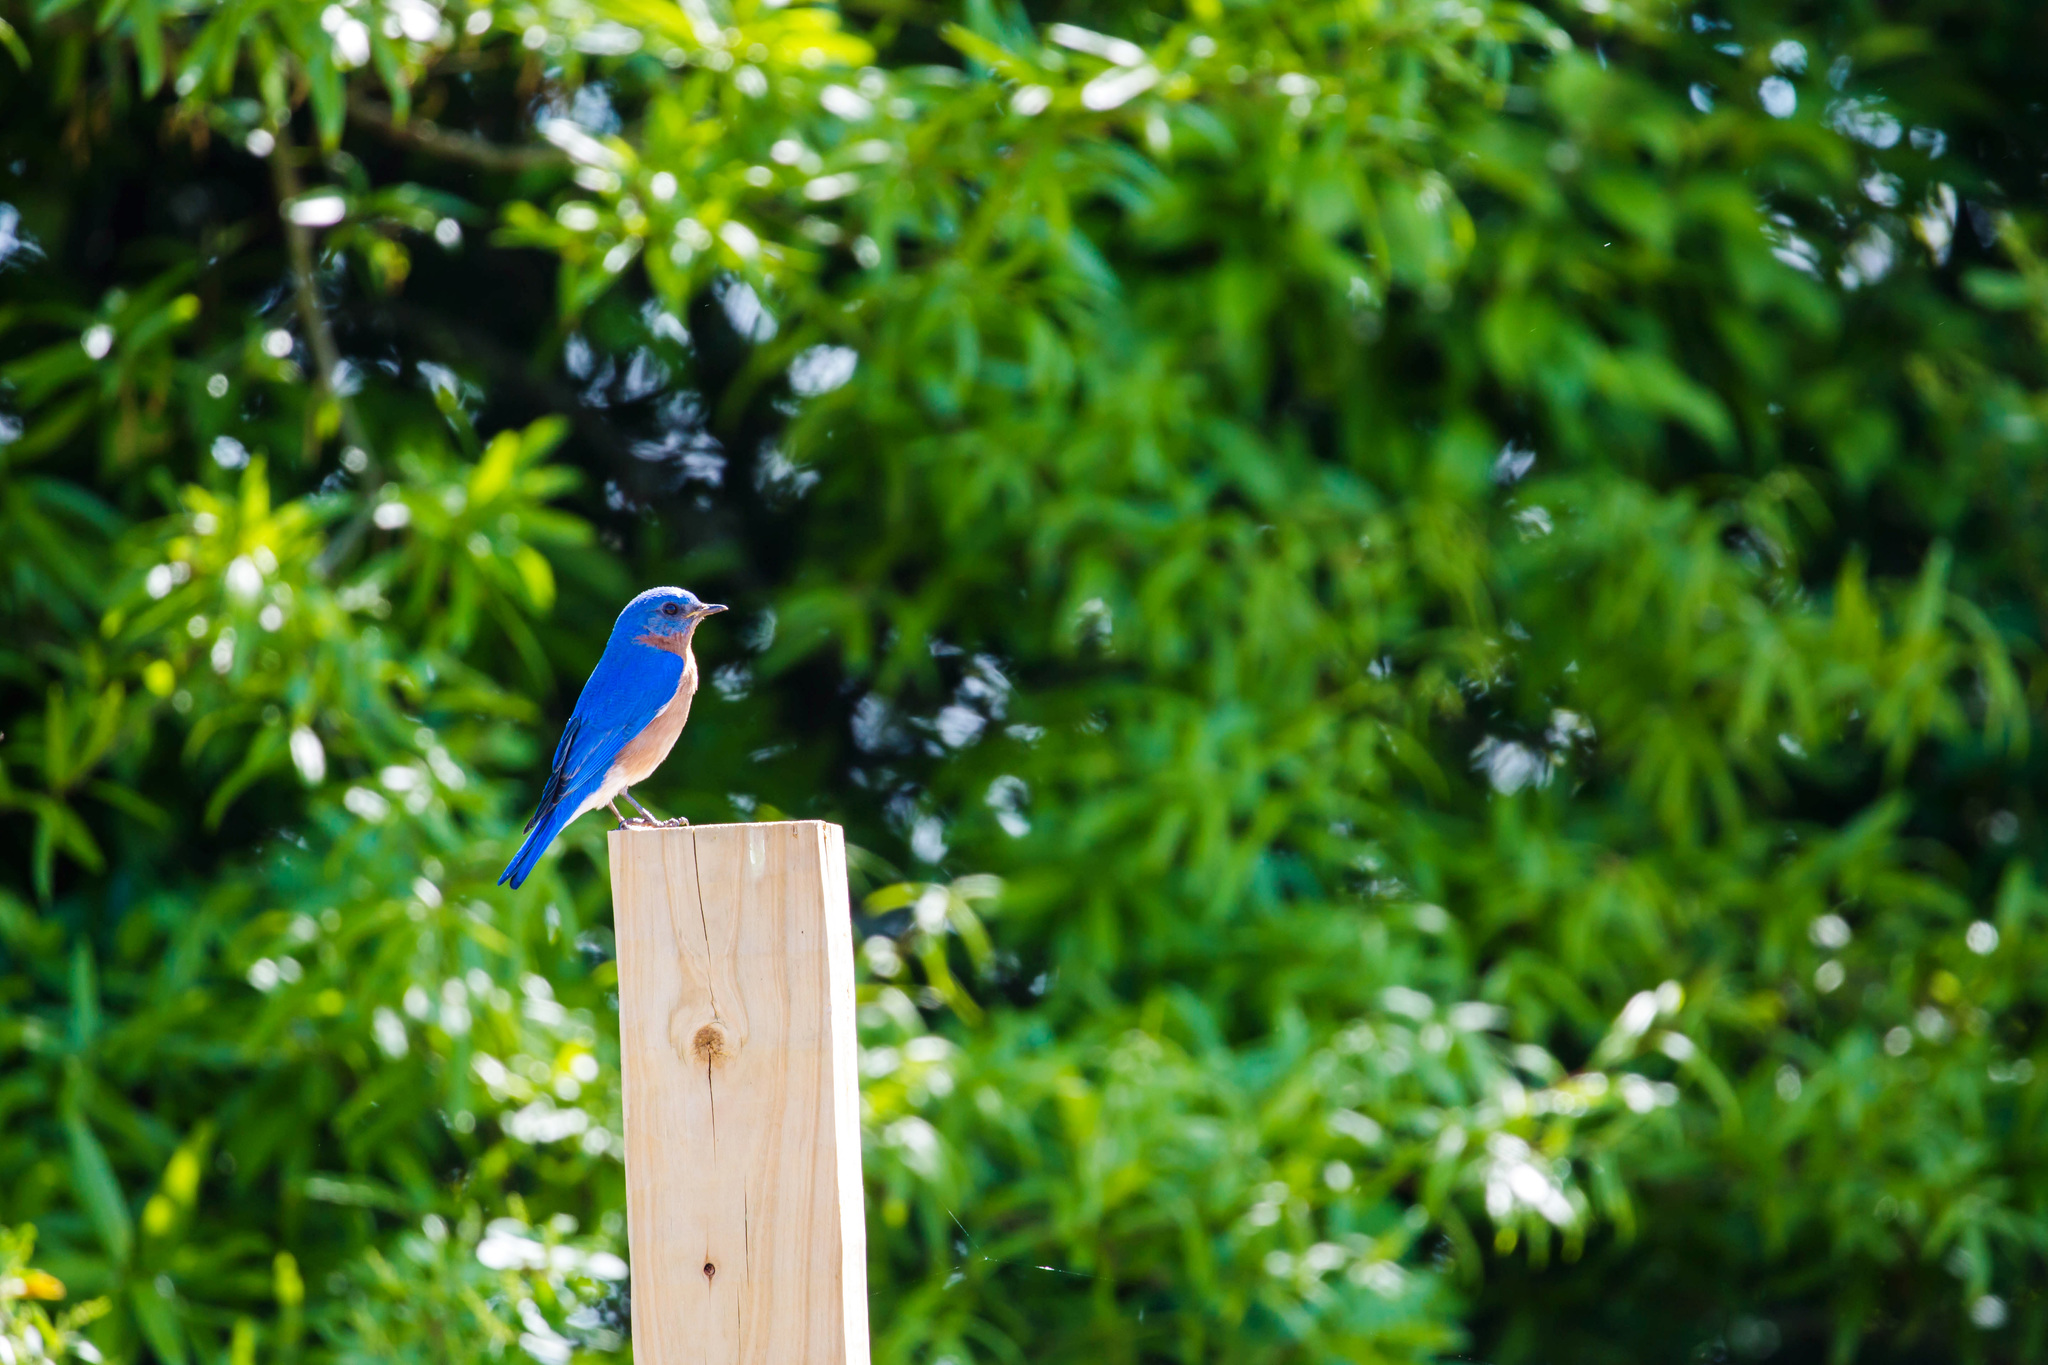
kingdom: Animalia
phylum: Chordata
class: Aves
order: Passeriformes
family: Turdidae
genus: Sialia
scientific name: Sialia sialis
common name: Eastern bluebird
